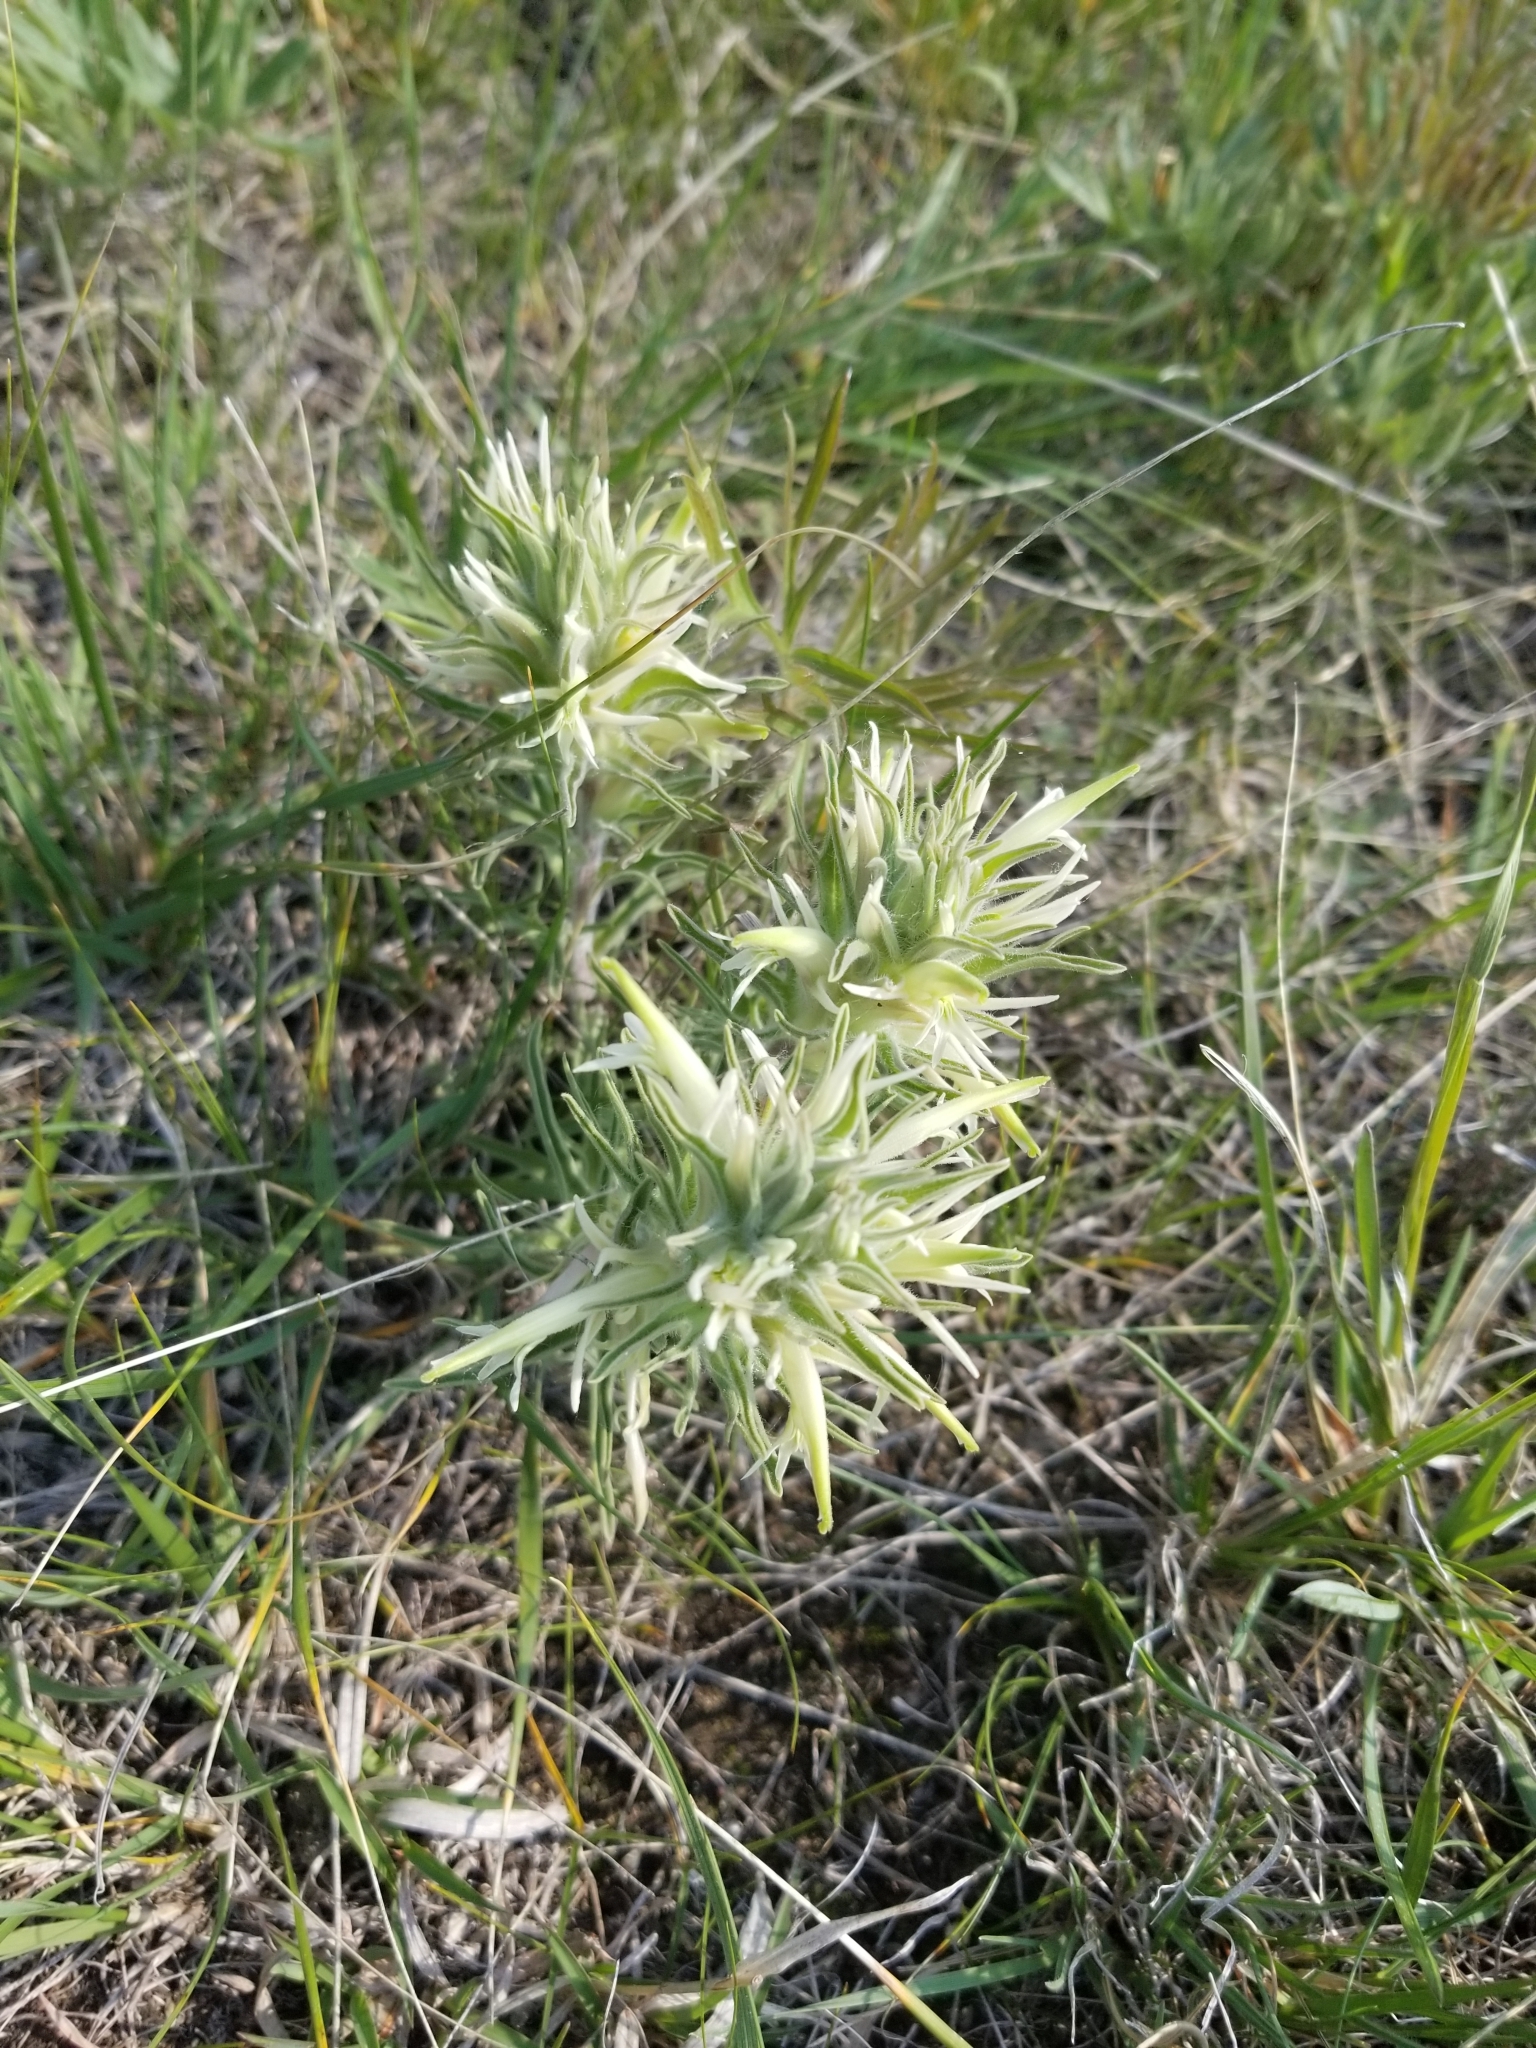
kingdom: Plantae
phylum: Tracheophyta
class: Magnoliopsida
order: Lamiales
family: Orobanchaceae
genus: Castilleja
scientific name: Castilleja sessiliflora
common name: Downy paintbrush
